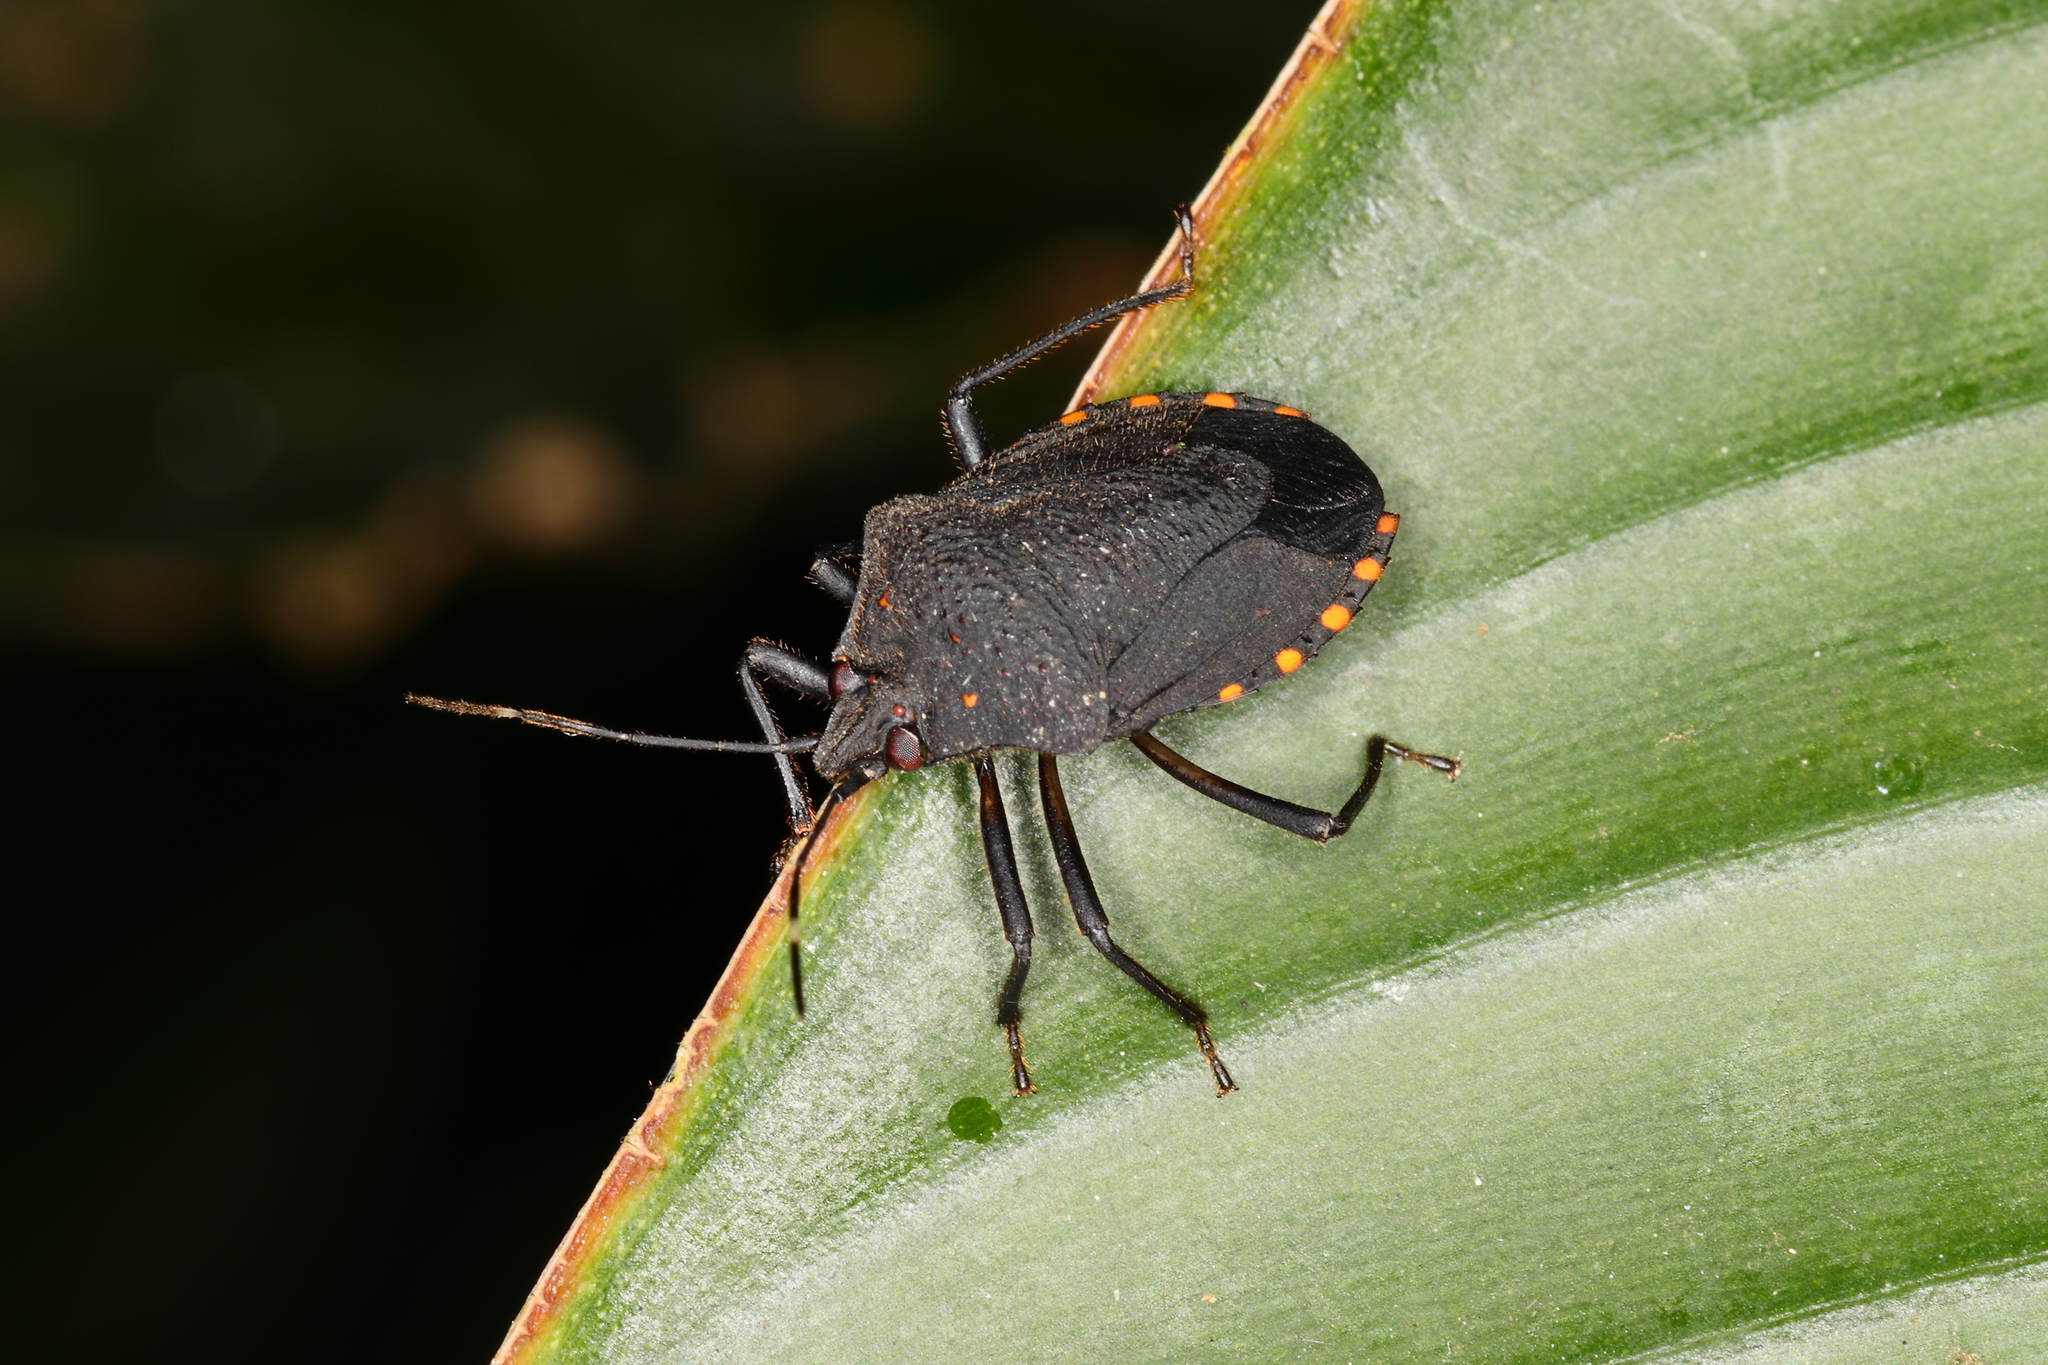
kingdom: Animalia
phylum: Arthropoda
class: Insecta
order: Hemiptera
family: Pentatomidae
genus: Ochlerus
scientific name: Ochlerus circummaculatus
